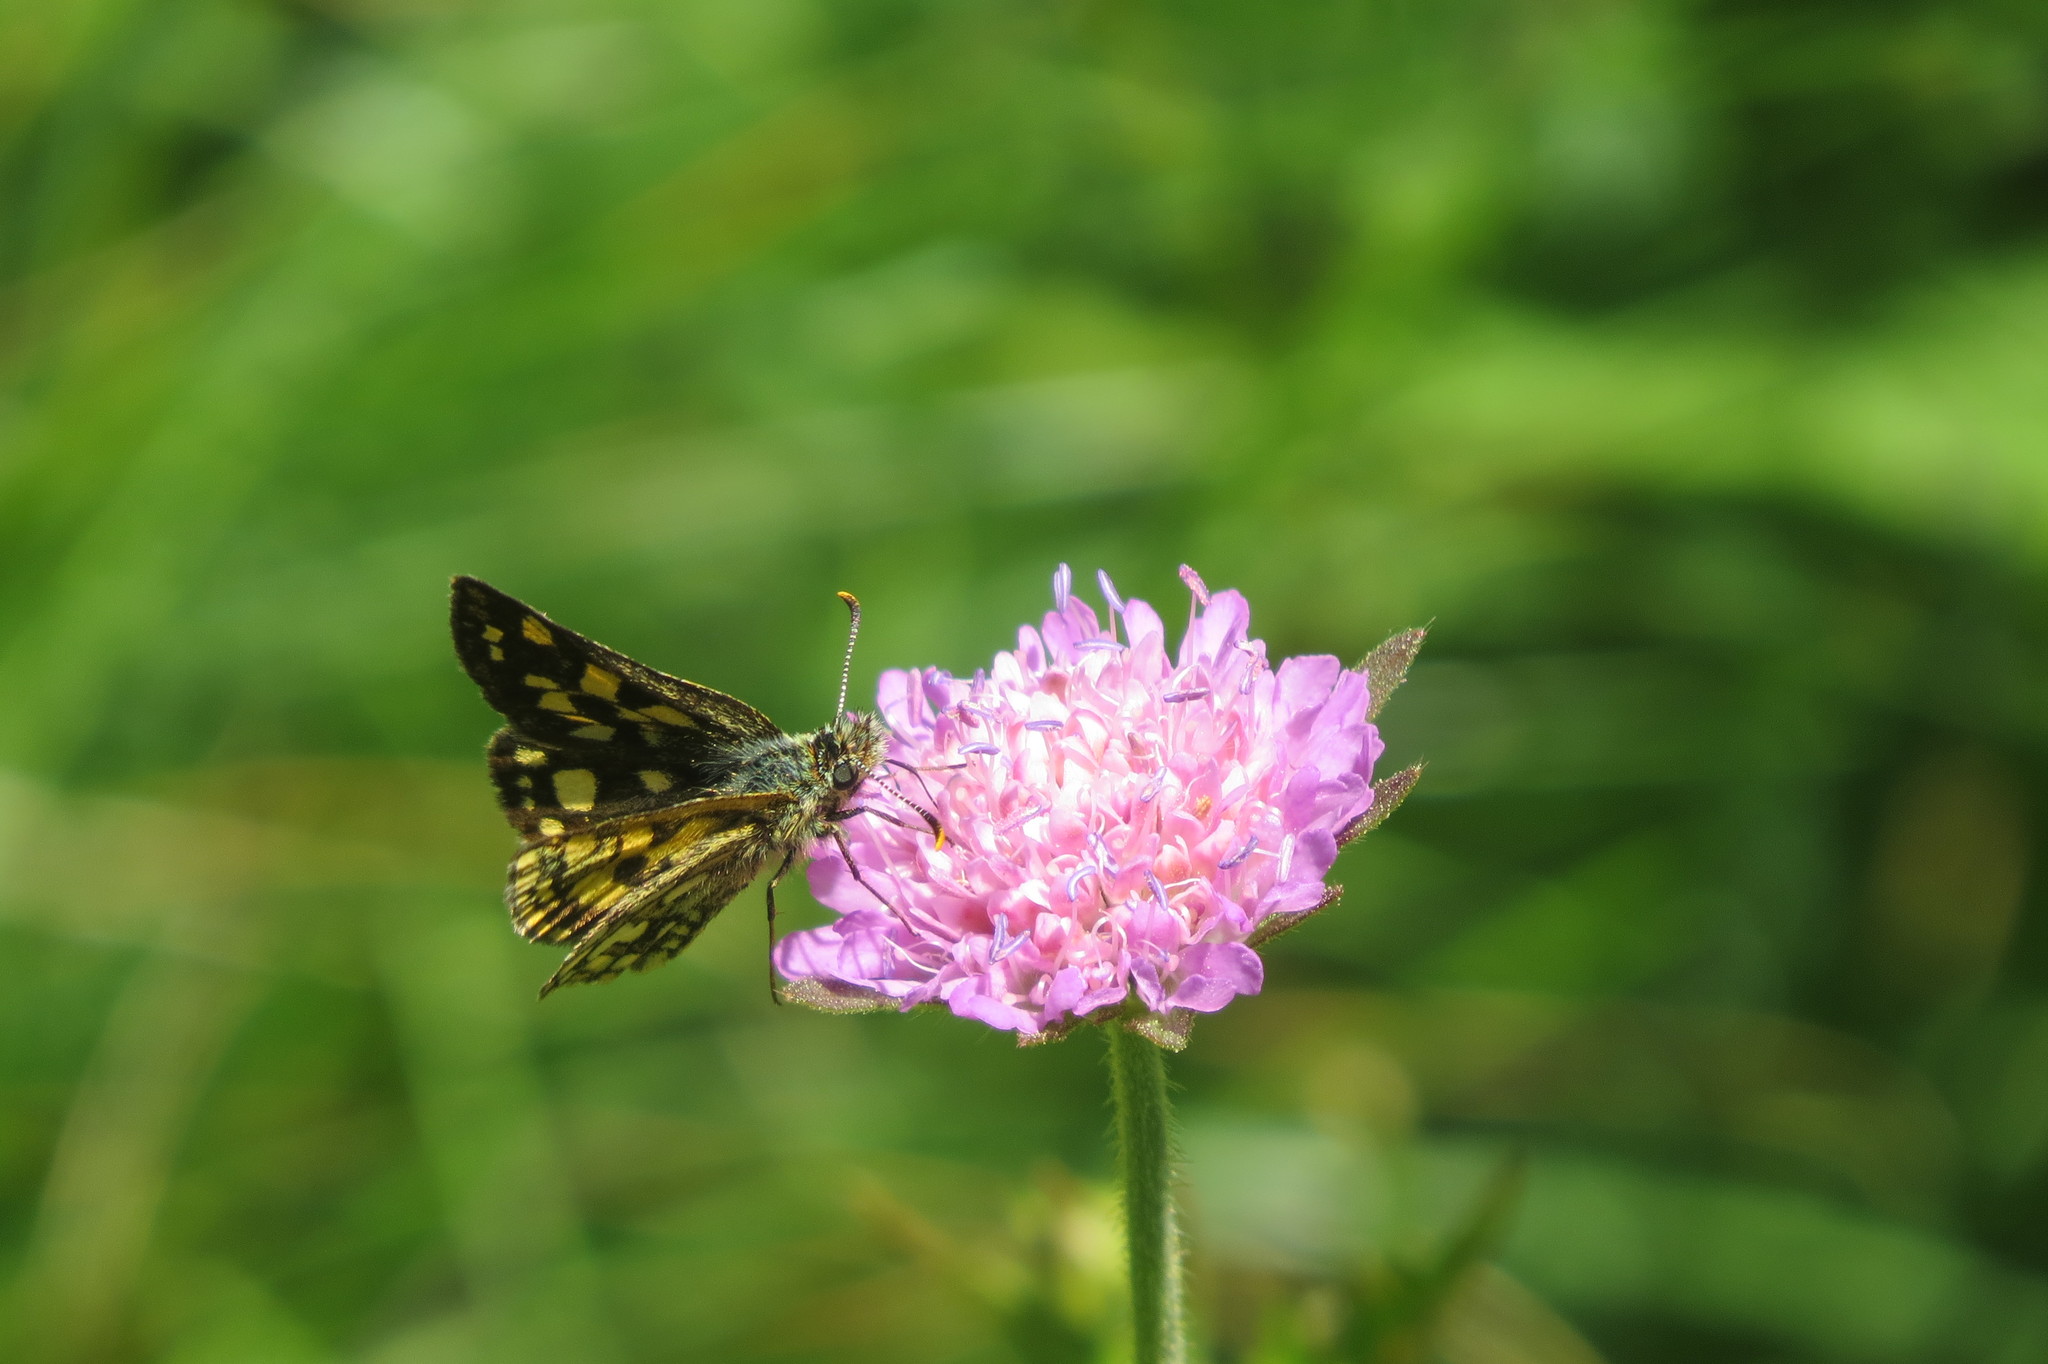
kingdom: Animalia
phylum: Arthropoda
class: Insecta
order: Lepidoptera
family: Hesperiidae
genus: Carterocephalus
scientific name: Carterocephalus palaemon
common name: Chequered skipper
